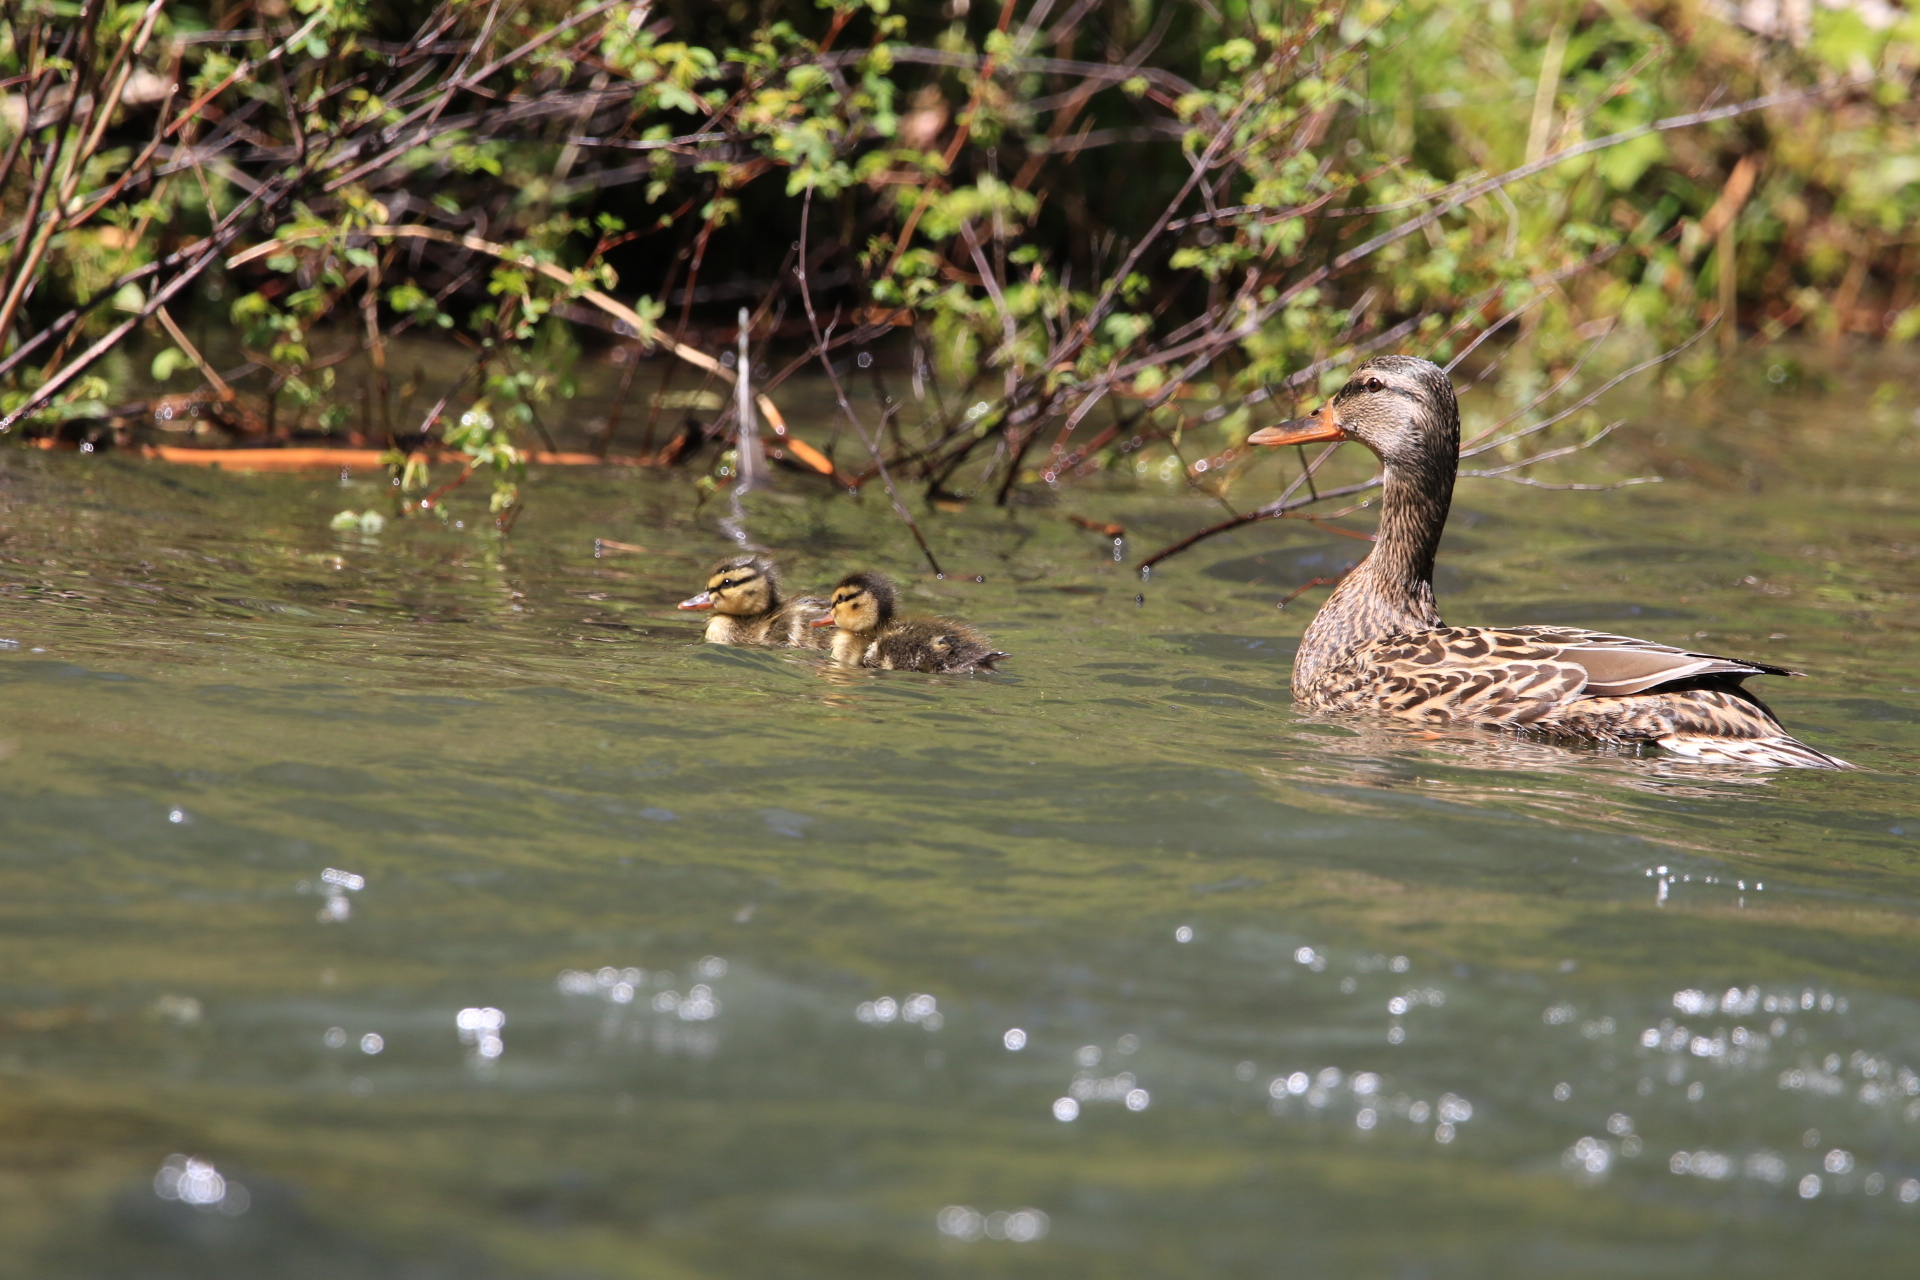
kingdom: Animalia
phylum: Chordata
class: Aves
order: Anseriformes
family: Anatidae
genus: Anas
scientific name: Anas platyrhynchos
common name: Mallard
